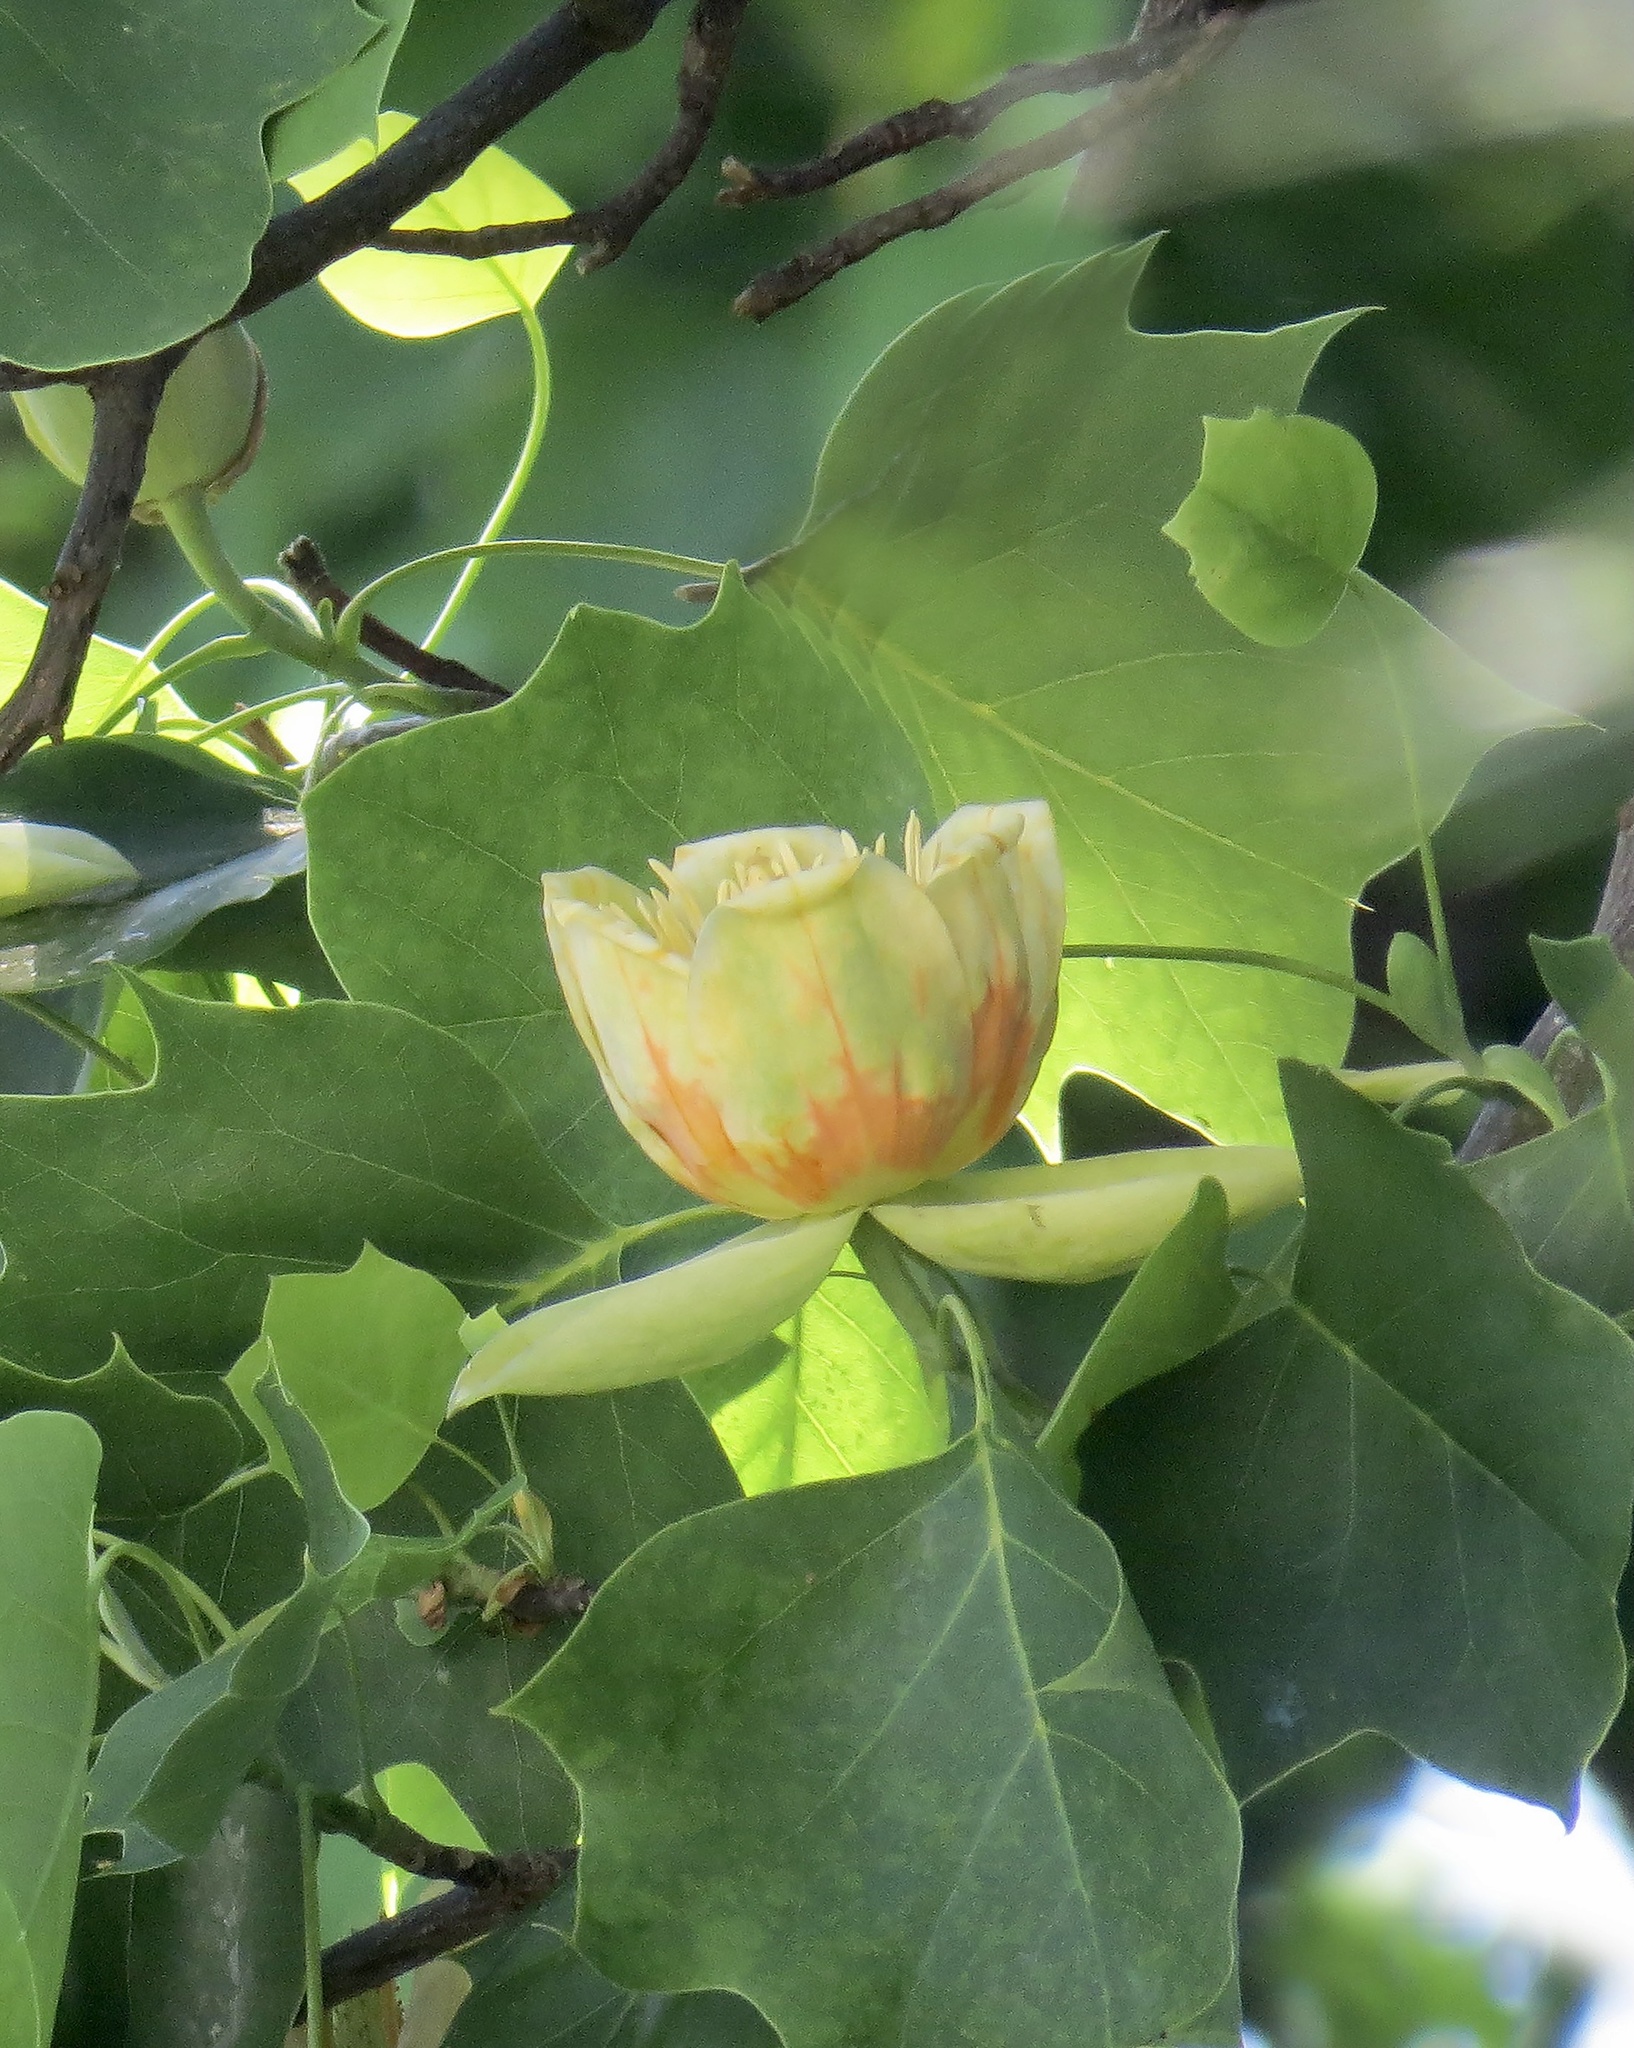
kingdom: Plantae
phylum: Tracheophyta
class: Magnoliopsida
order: Magnoliales
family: Magnoliaceae
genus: Liriodendron
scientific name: Liriodendron tulipifera
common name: Tulip tree
